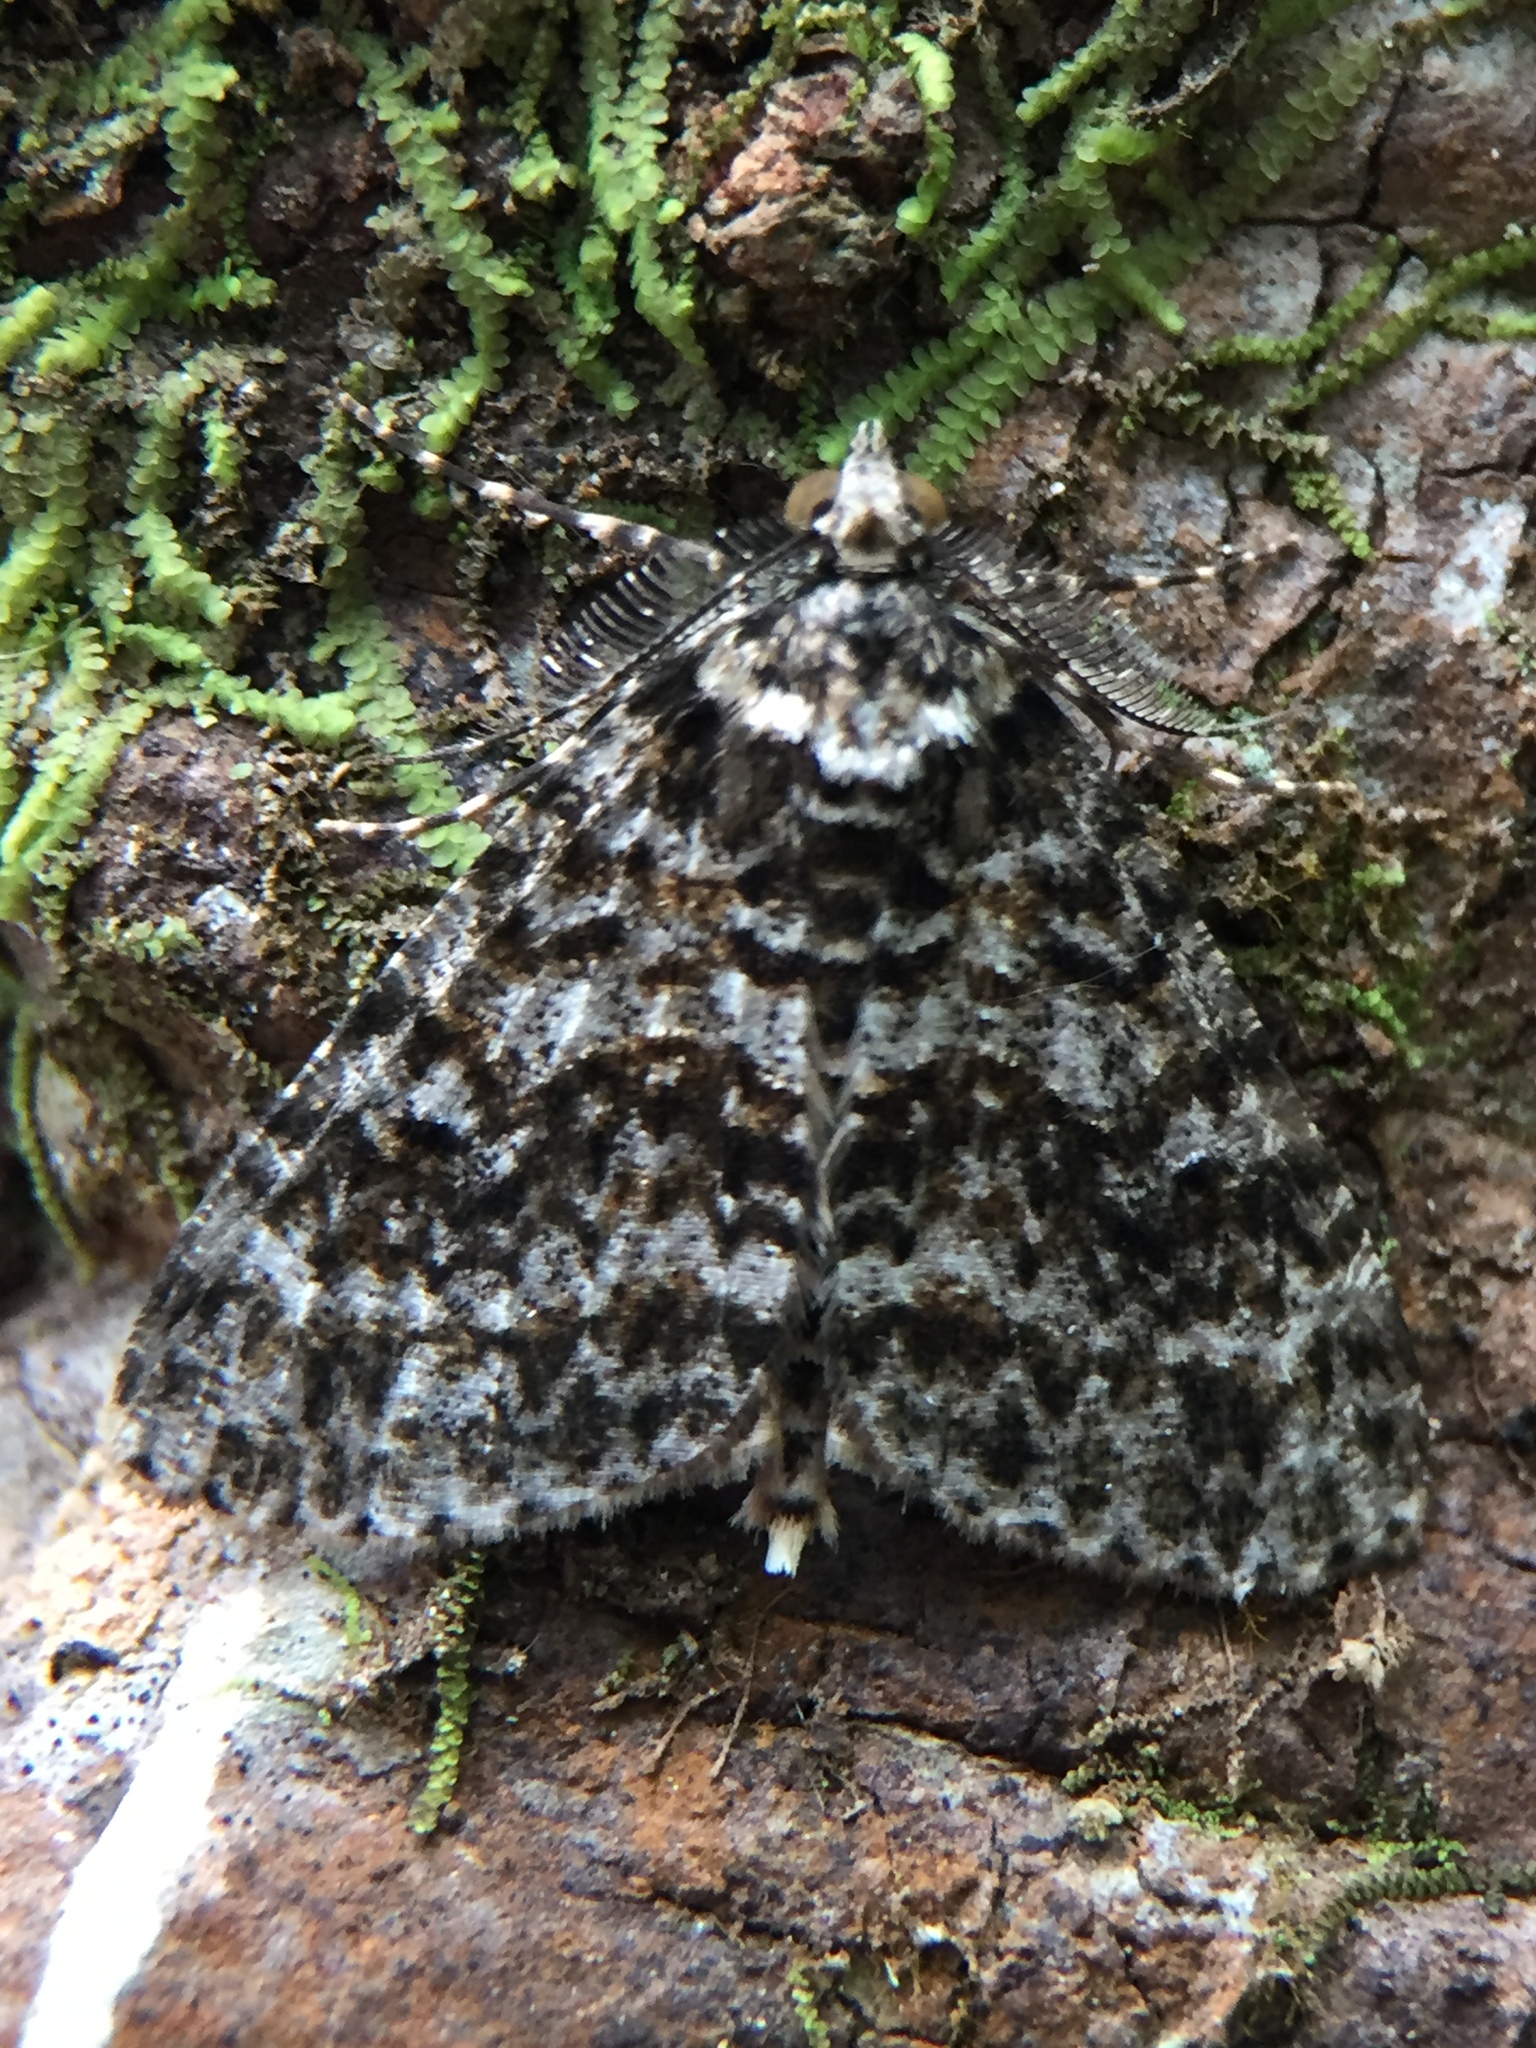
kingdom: Animalia
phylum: Arthropoda
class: Insecta
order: Lepidoptera
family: Geometridae
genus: Pseudocoremia
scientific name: Pseudocoremia monacha
